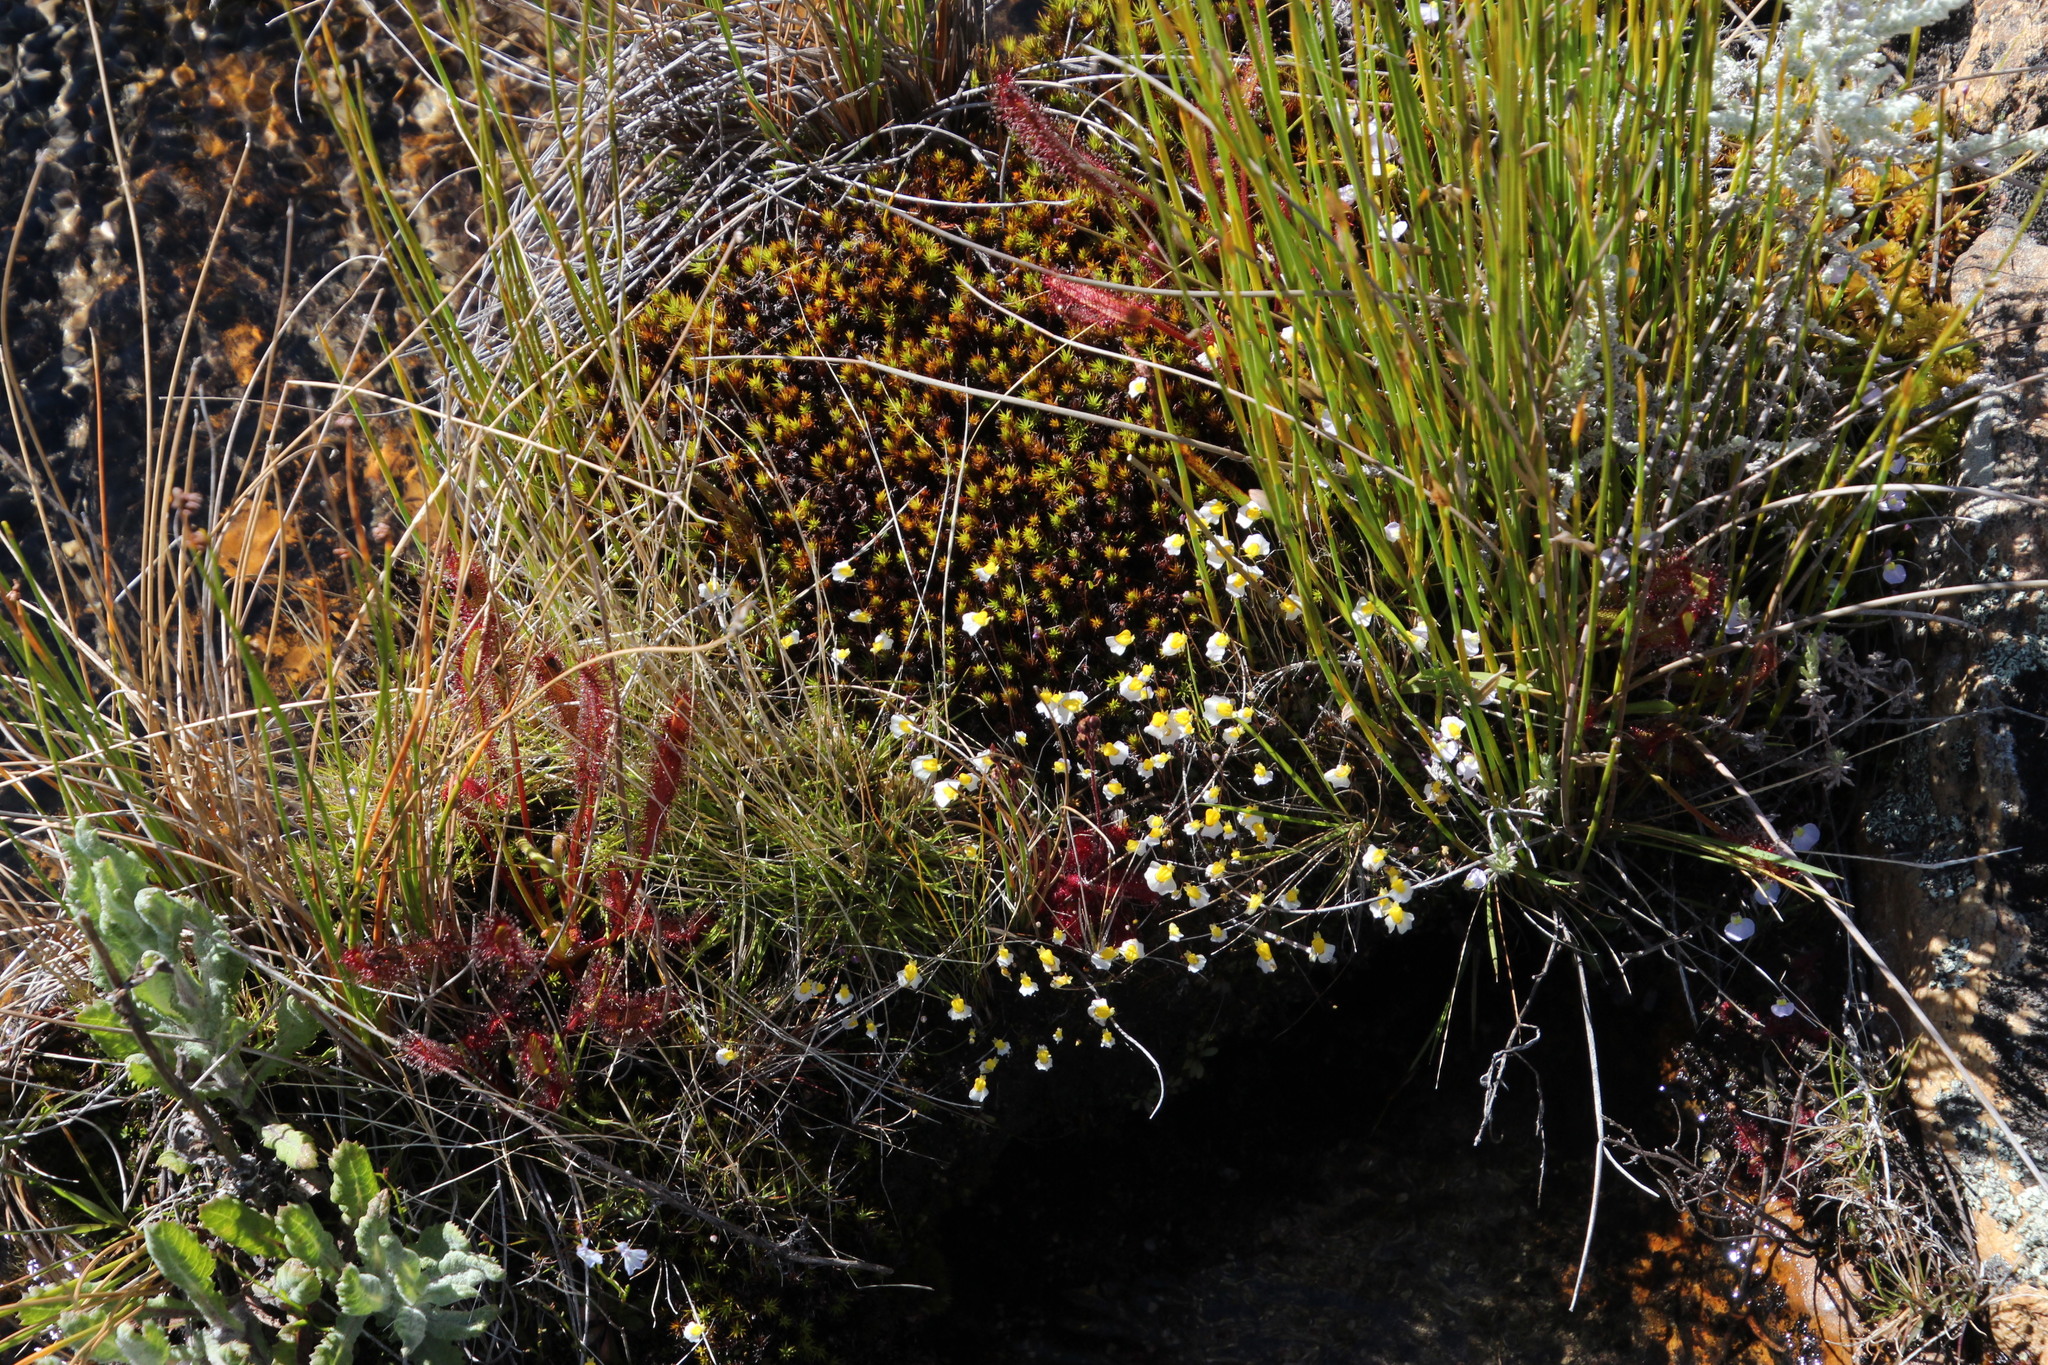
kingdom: Plantae
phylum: Tracheophyta
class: Magnoliopsida
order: Lamiales
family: Lentibulariaceae
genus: Utricularia
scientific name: Utricularia bisquamata
